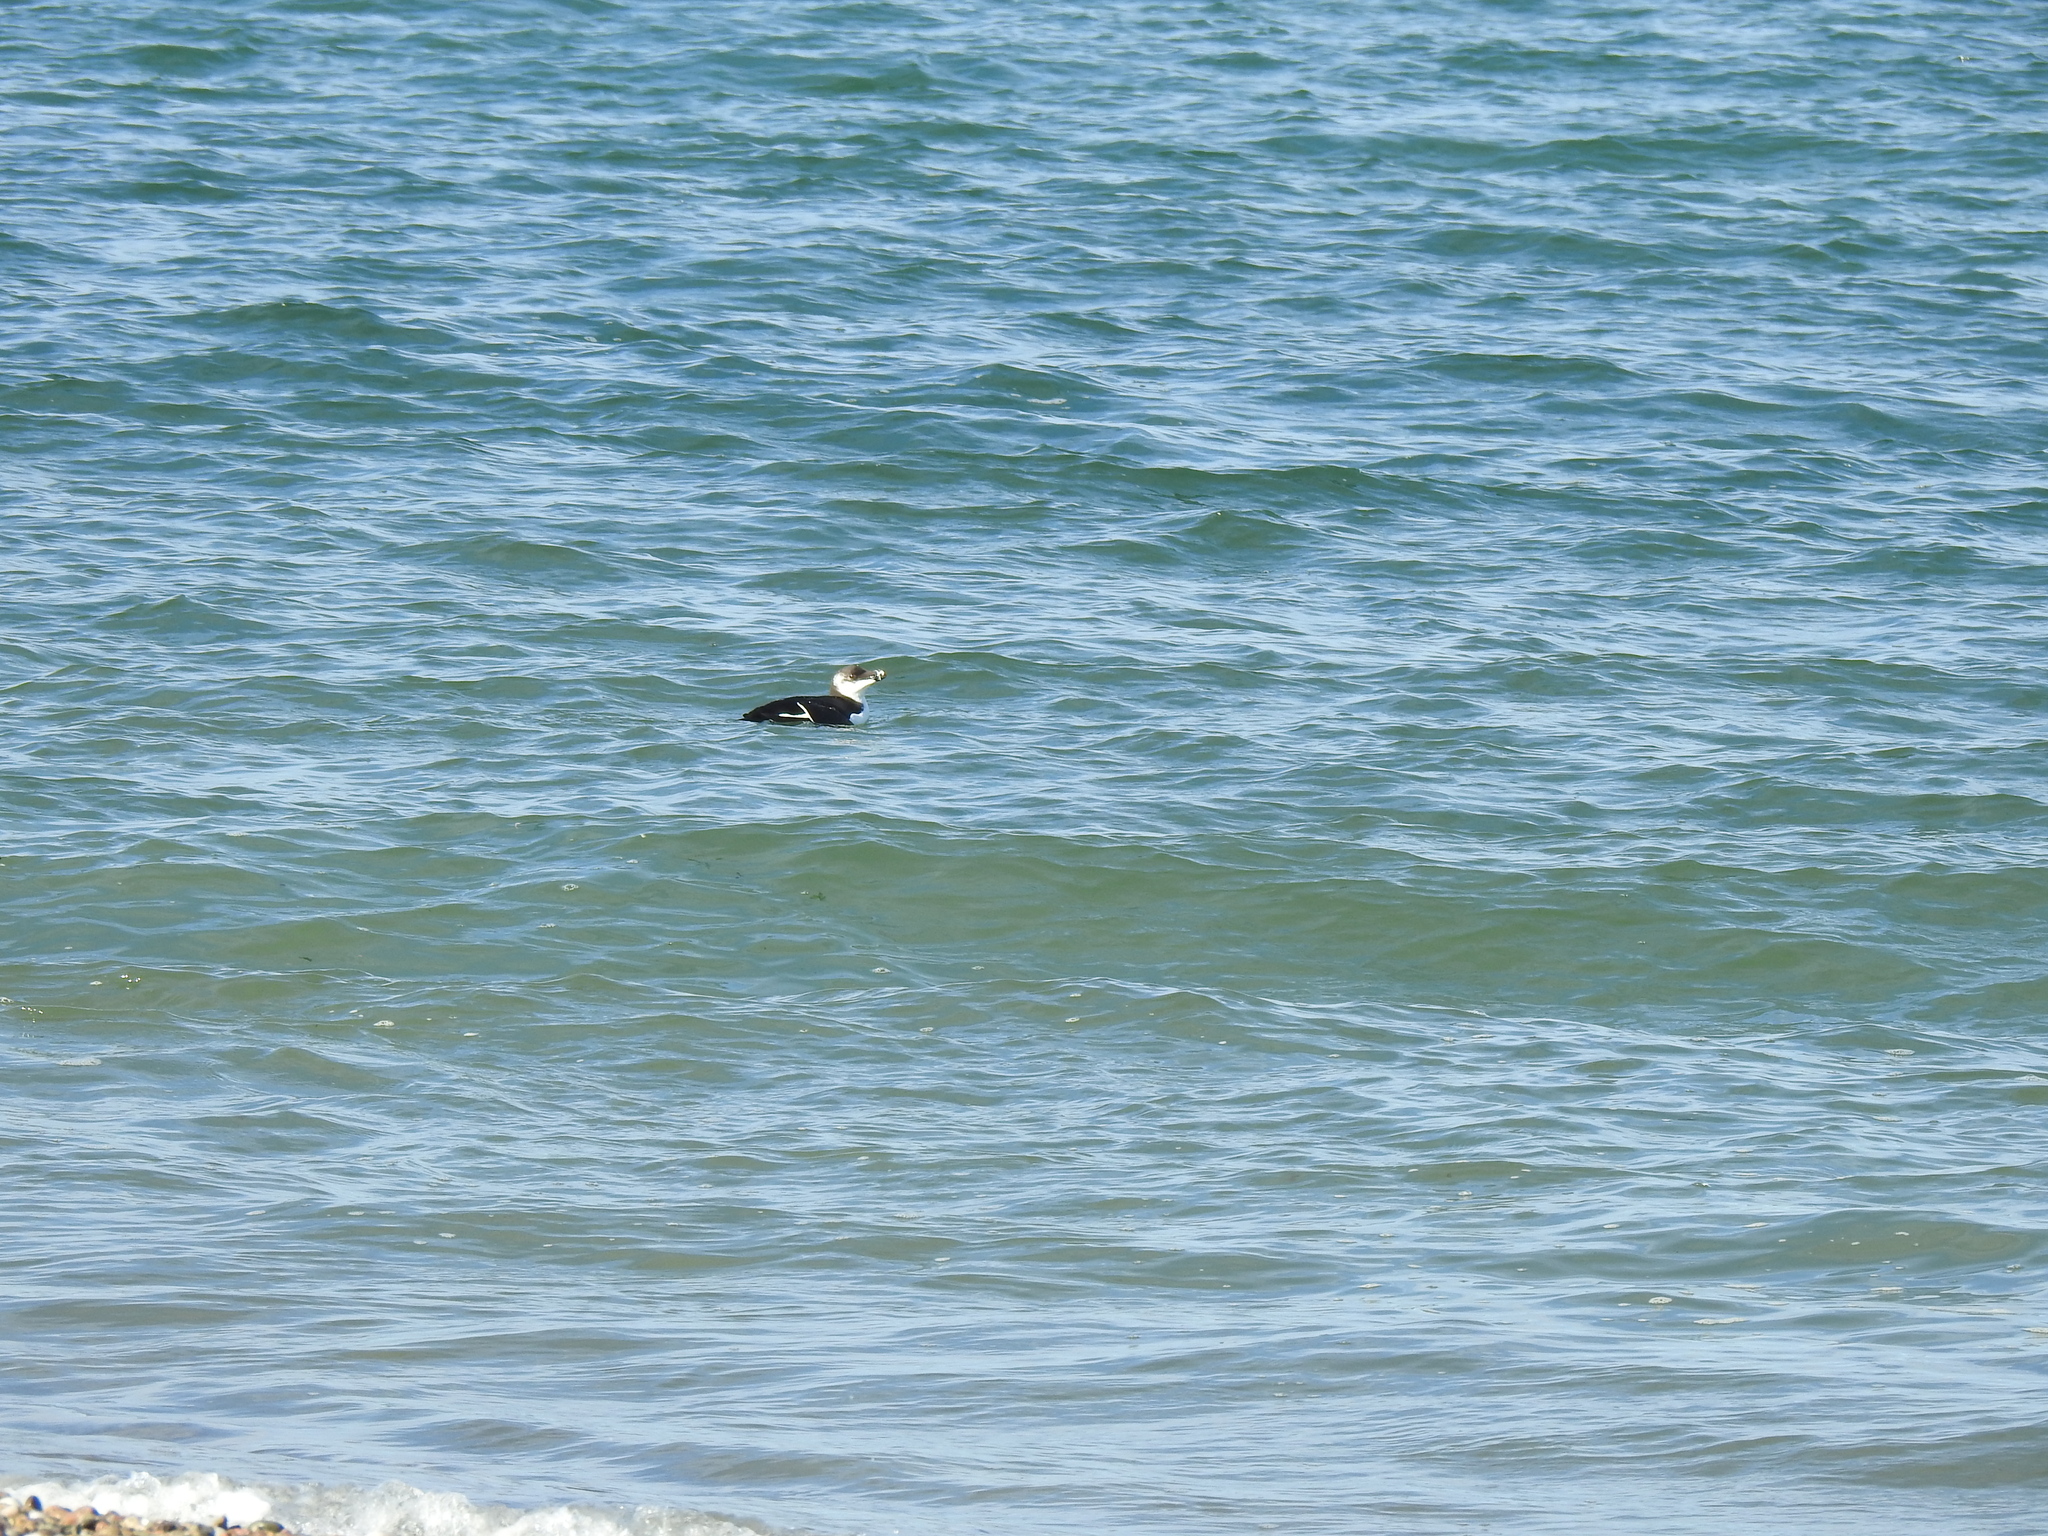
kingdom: Animalia
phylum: Chordata
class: Aves
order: Charadriiformes
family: Alcidae
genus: Alca
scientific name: Alca torda
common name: Razorbill
